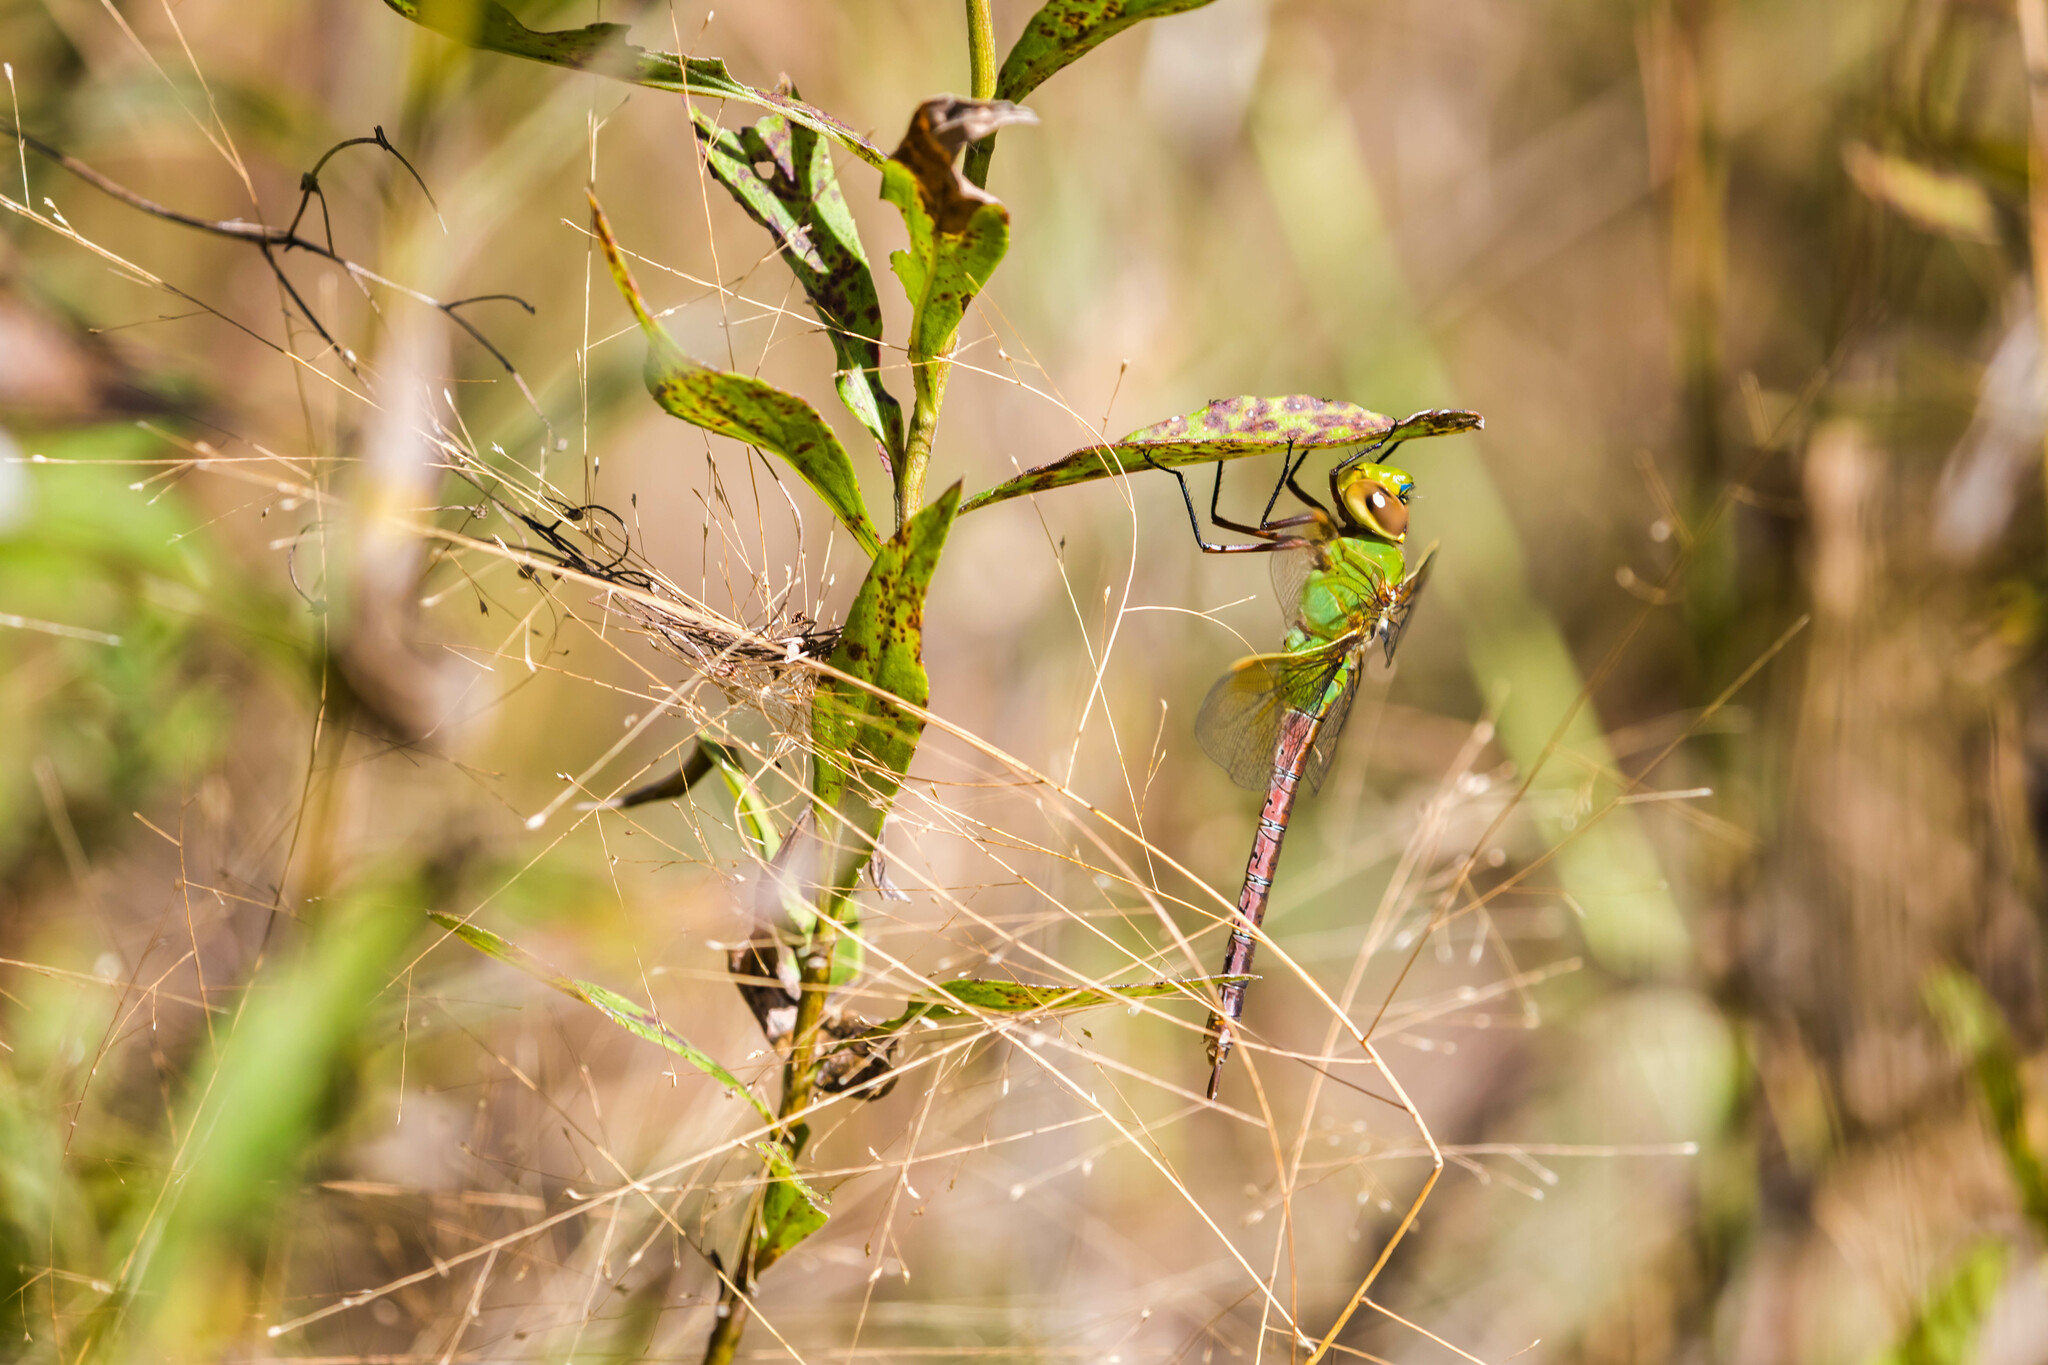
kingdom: Animalia
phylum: Arthropoda
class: Insecta
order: Odonata
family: Aeshnidae
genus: Anax
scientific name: Anax junius
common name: Common green darner
